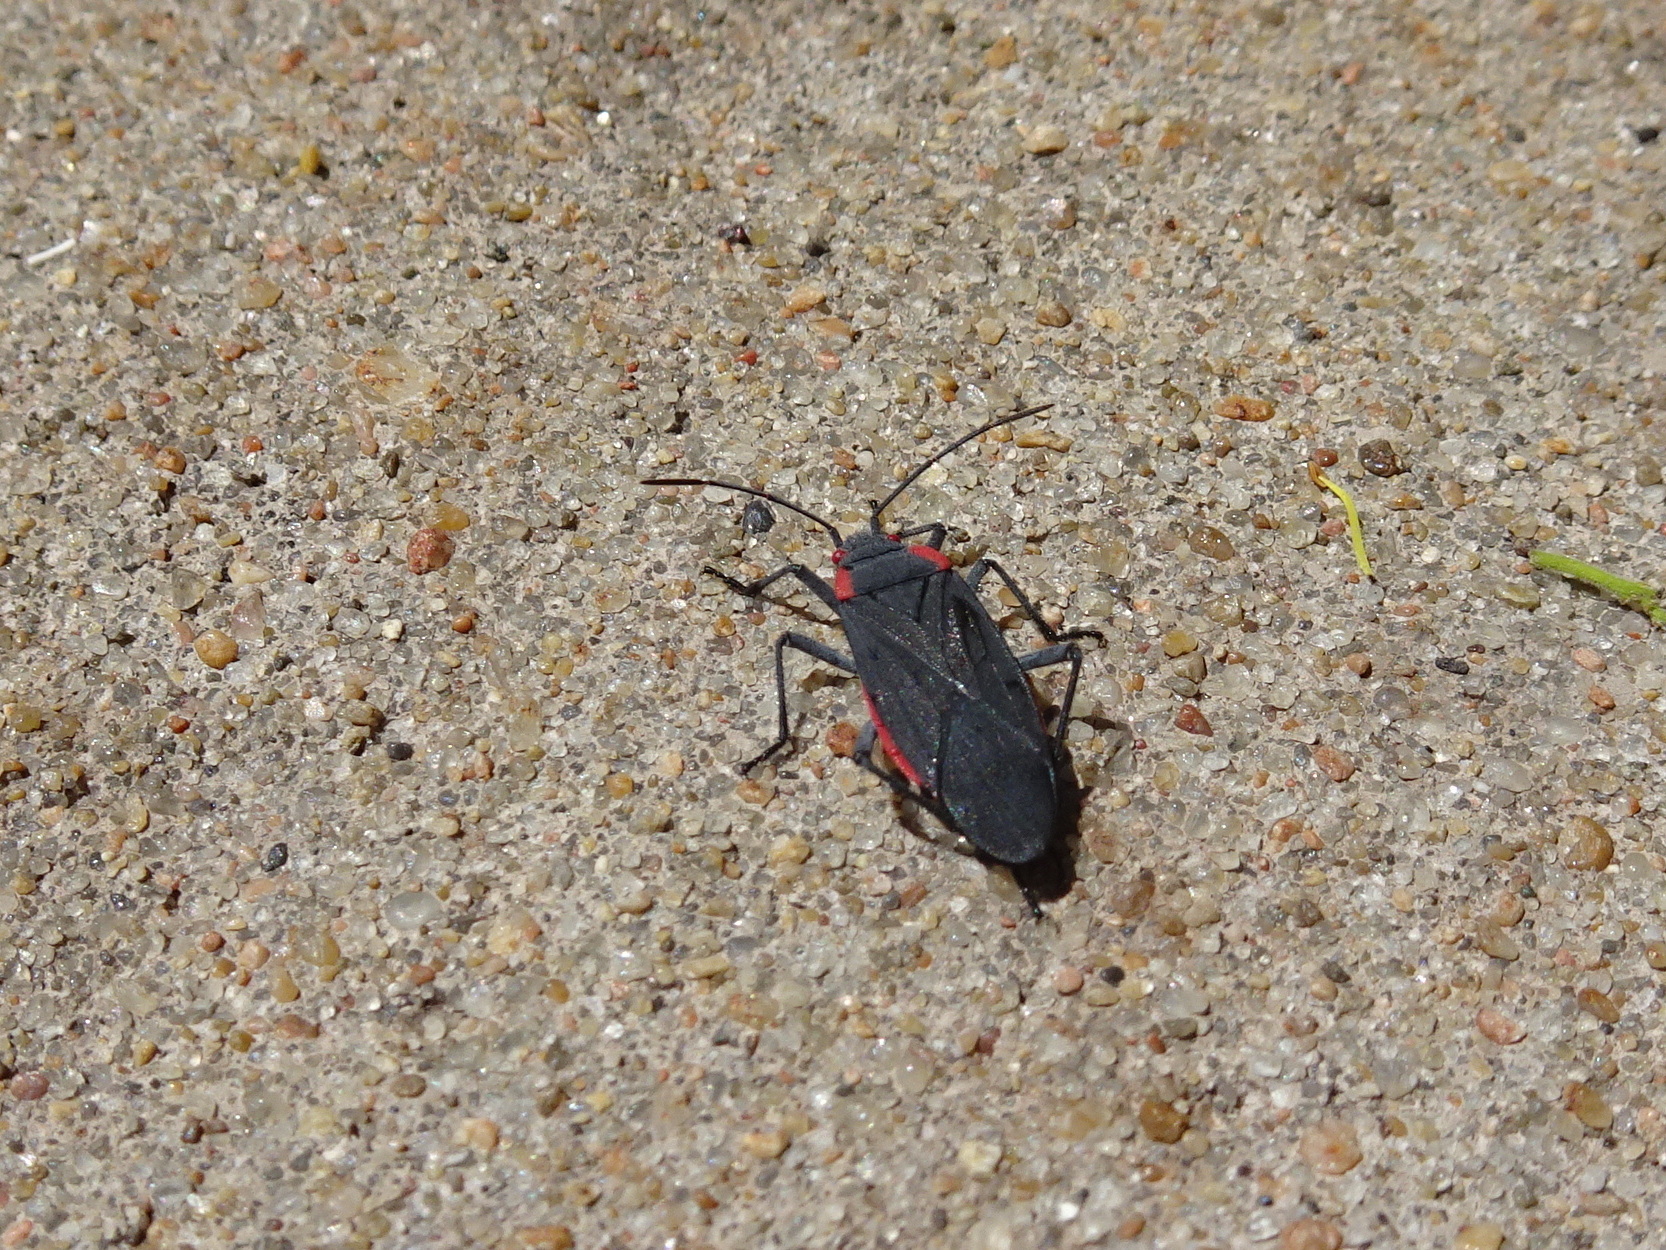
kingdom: Animalia
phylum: Arthropoda
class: Insecta
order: Hemiptera
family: Rhopalidae
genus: Jadera
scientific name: Jadera haematoloma
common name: Red-shouldered bug
